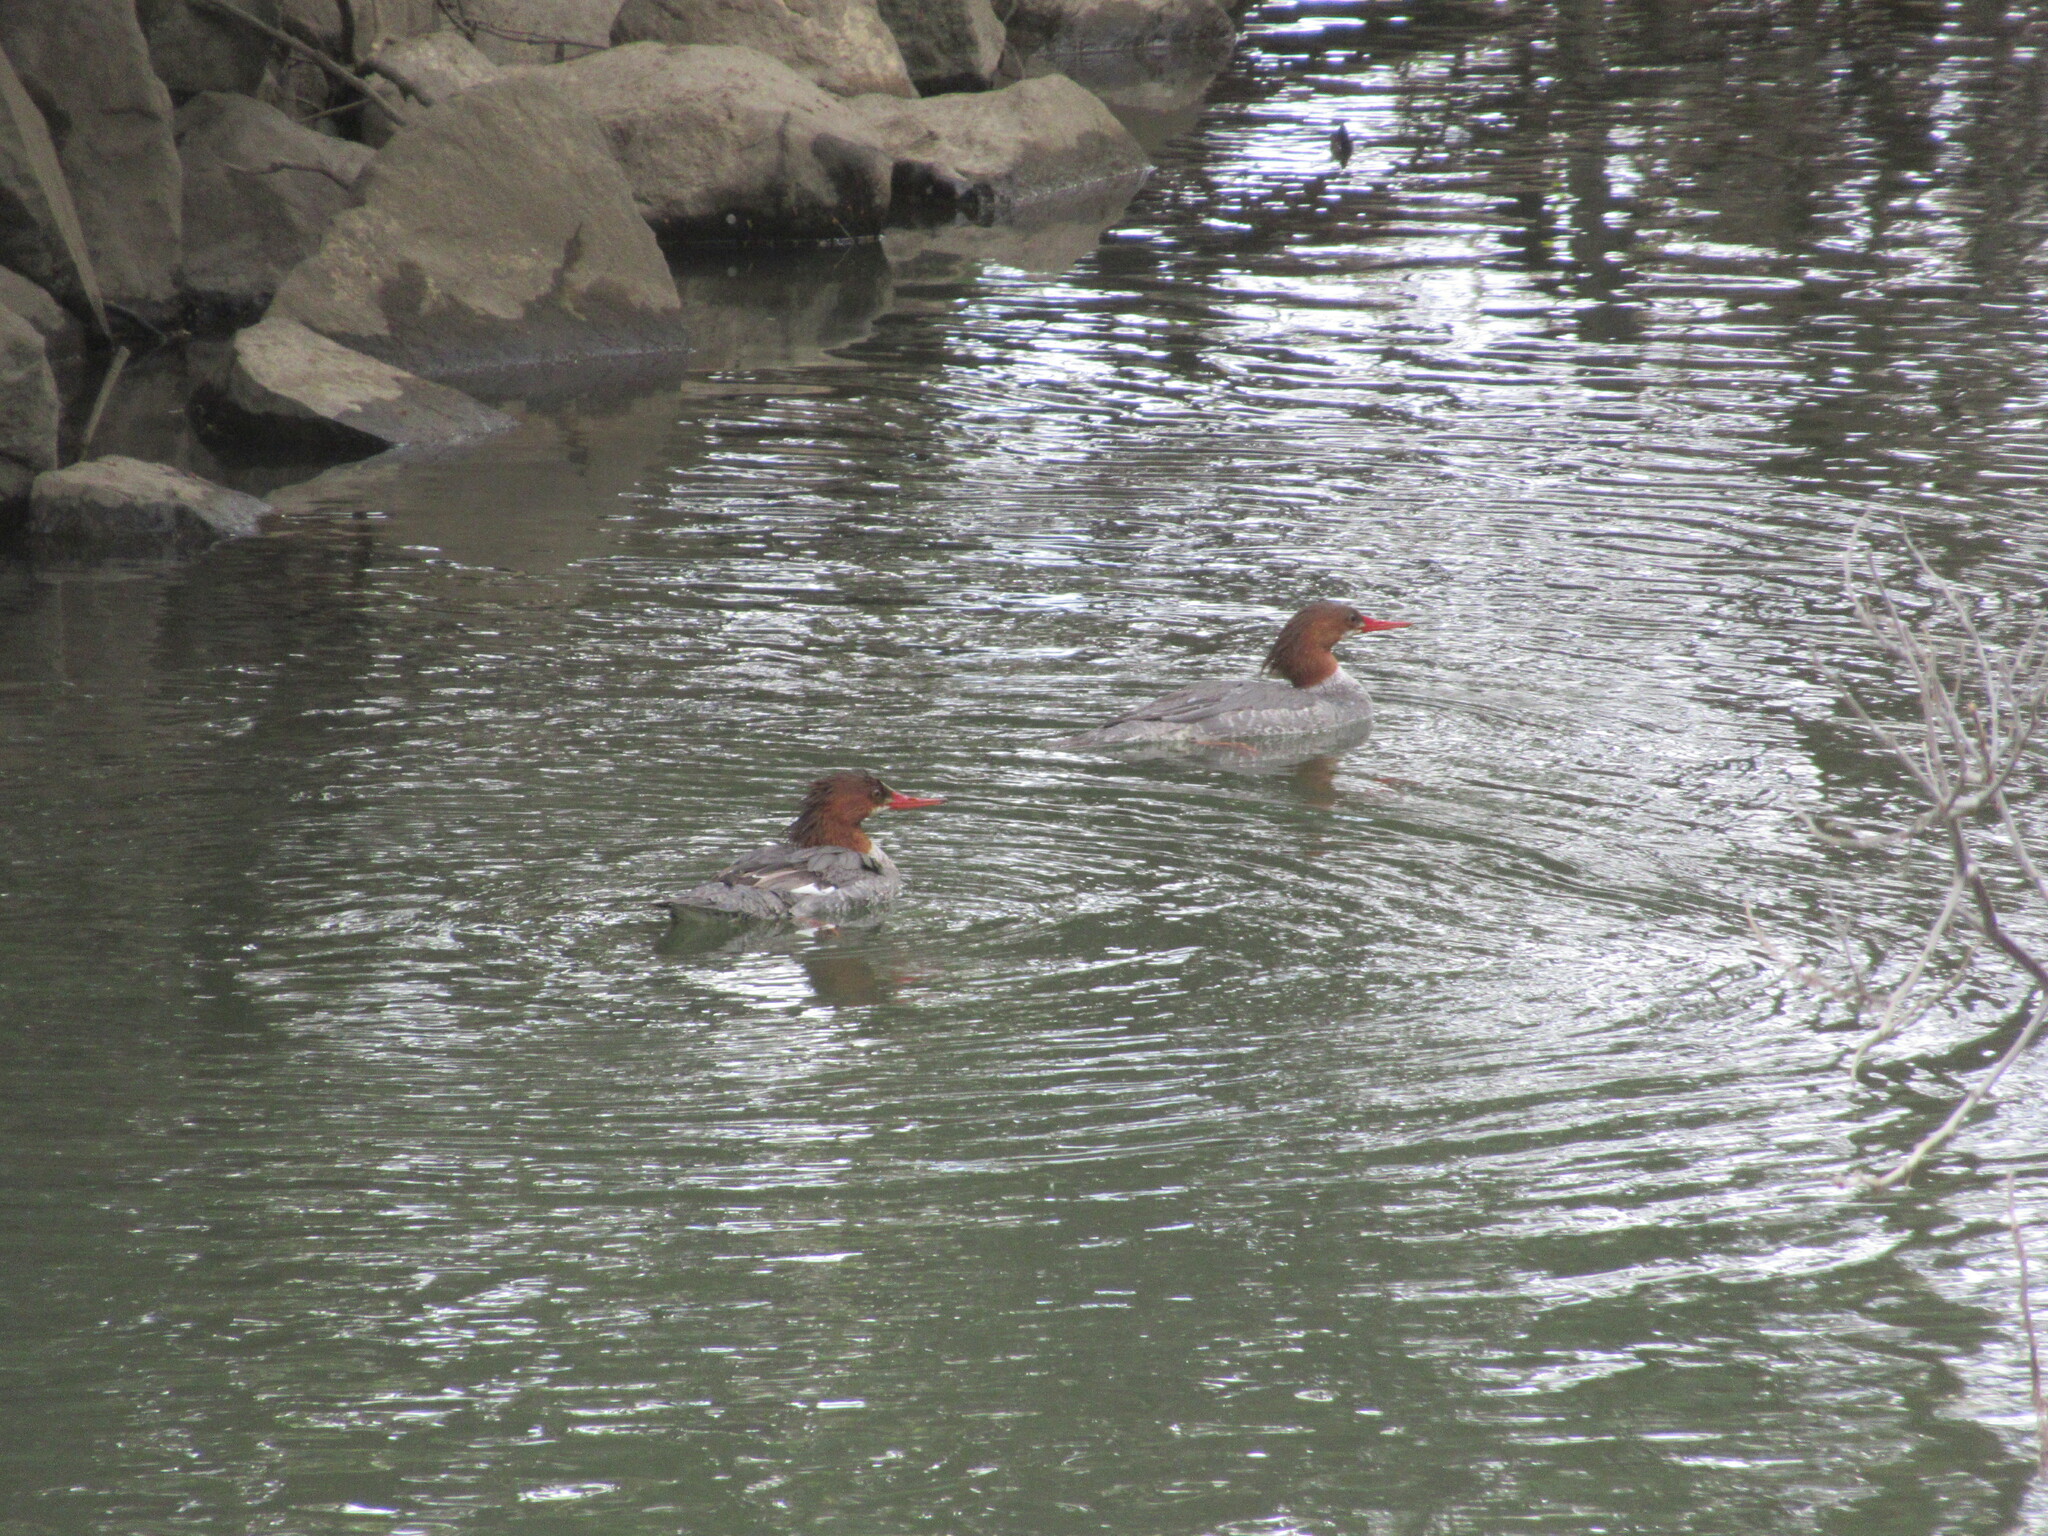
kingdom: Animalia
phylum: Chordata
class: Aves
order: Anseriformes
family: Anatidae
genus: Mergus
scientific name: Mergus merganser
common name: Common merganser
